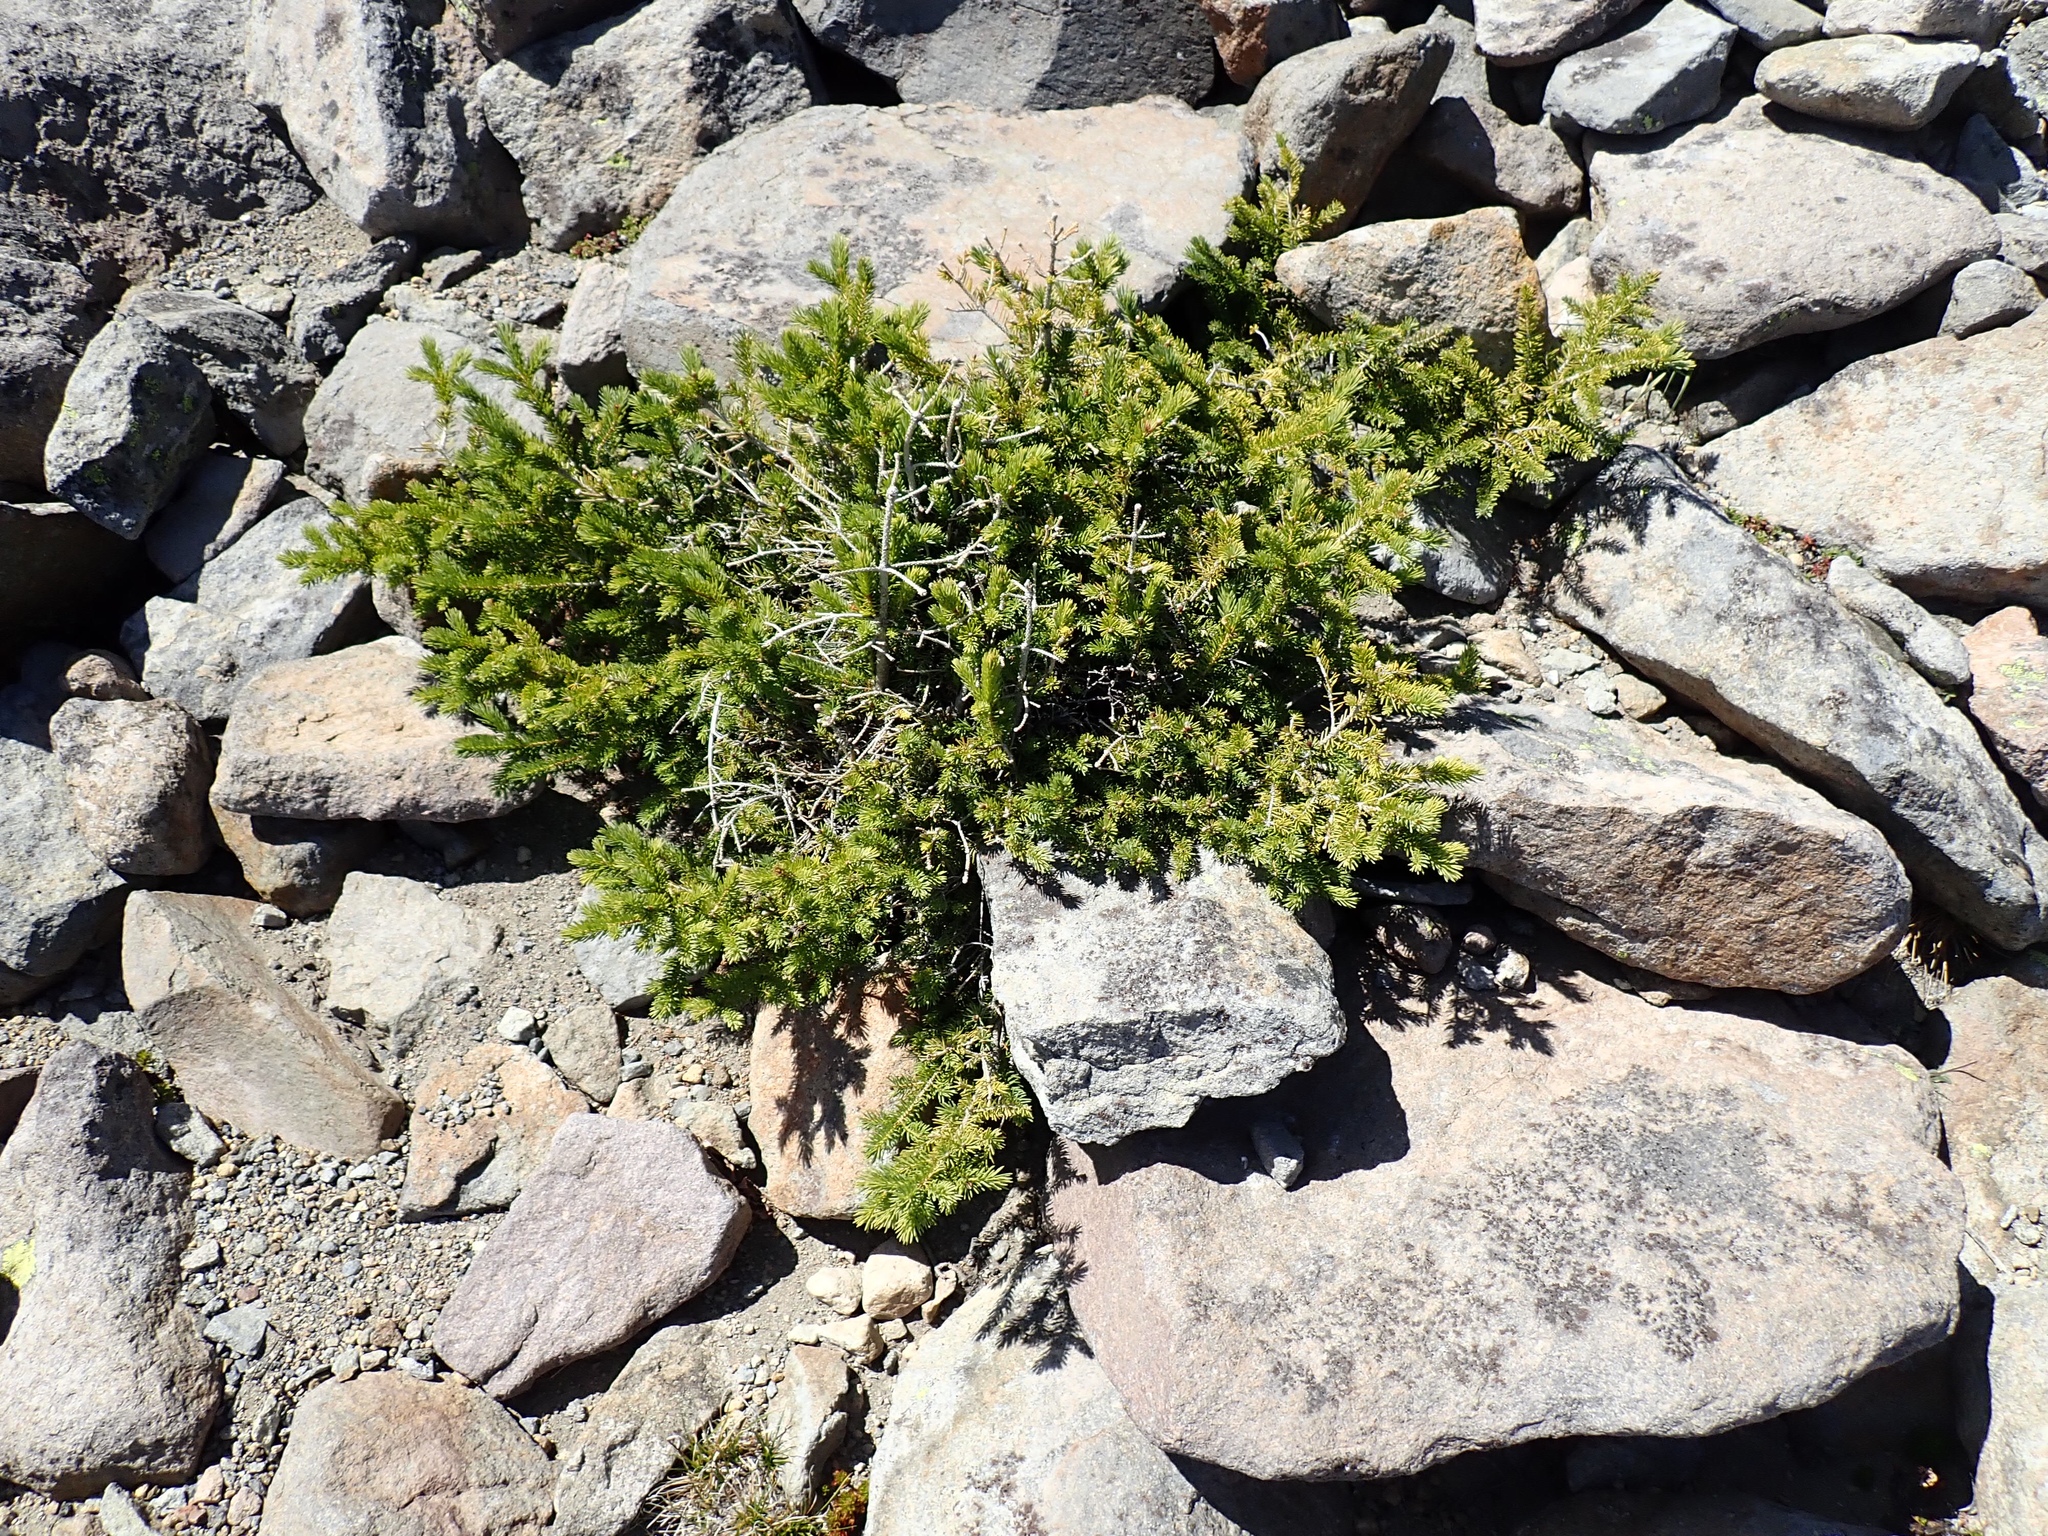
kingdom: Plantae
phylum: Tracheophyta
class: Pinopsida
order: Pinales
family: Pinaceae
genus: Abies
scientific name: Abies lasiocarpa
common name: Subalpine fir
